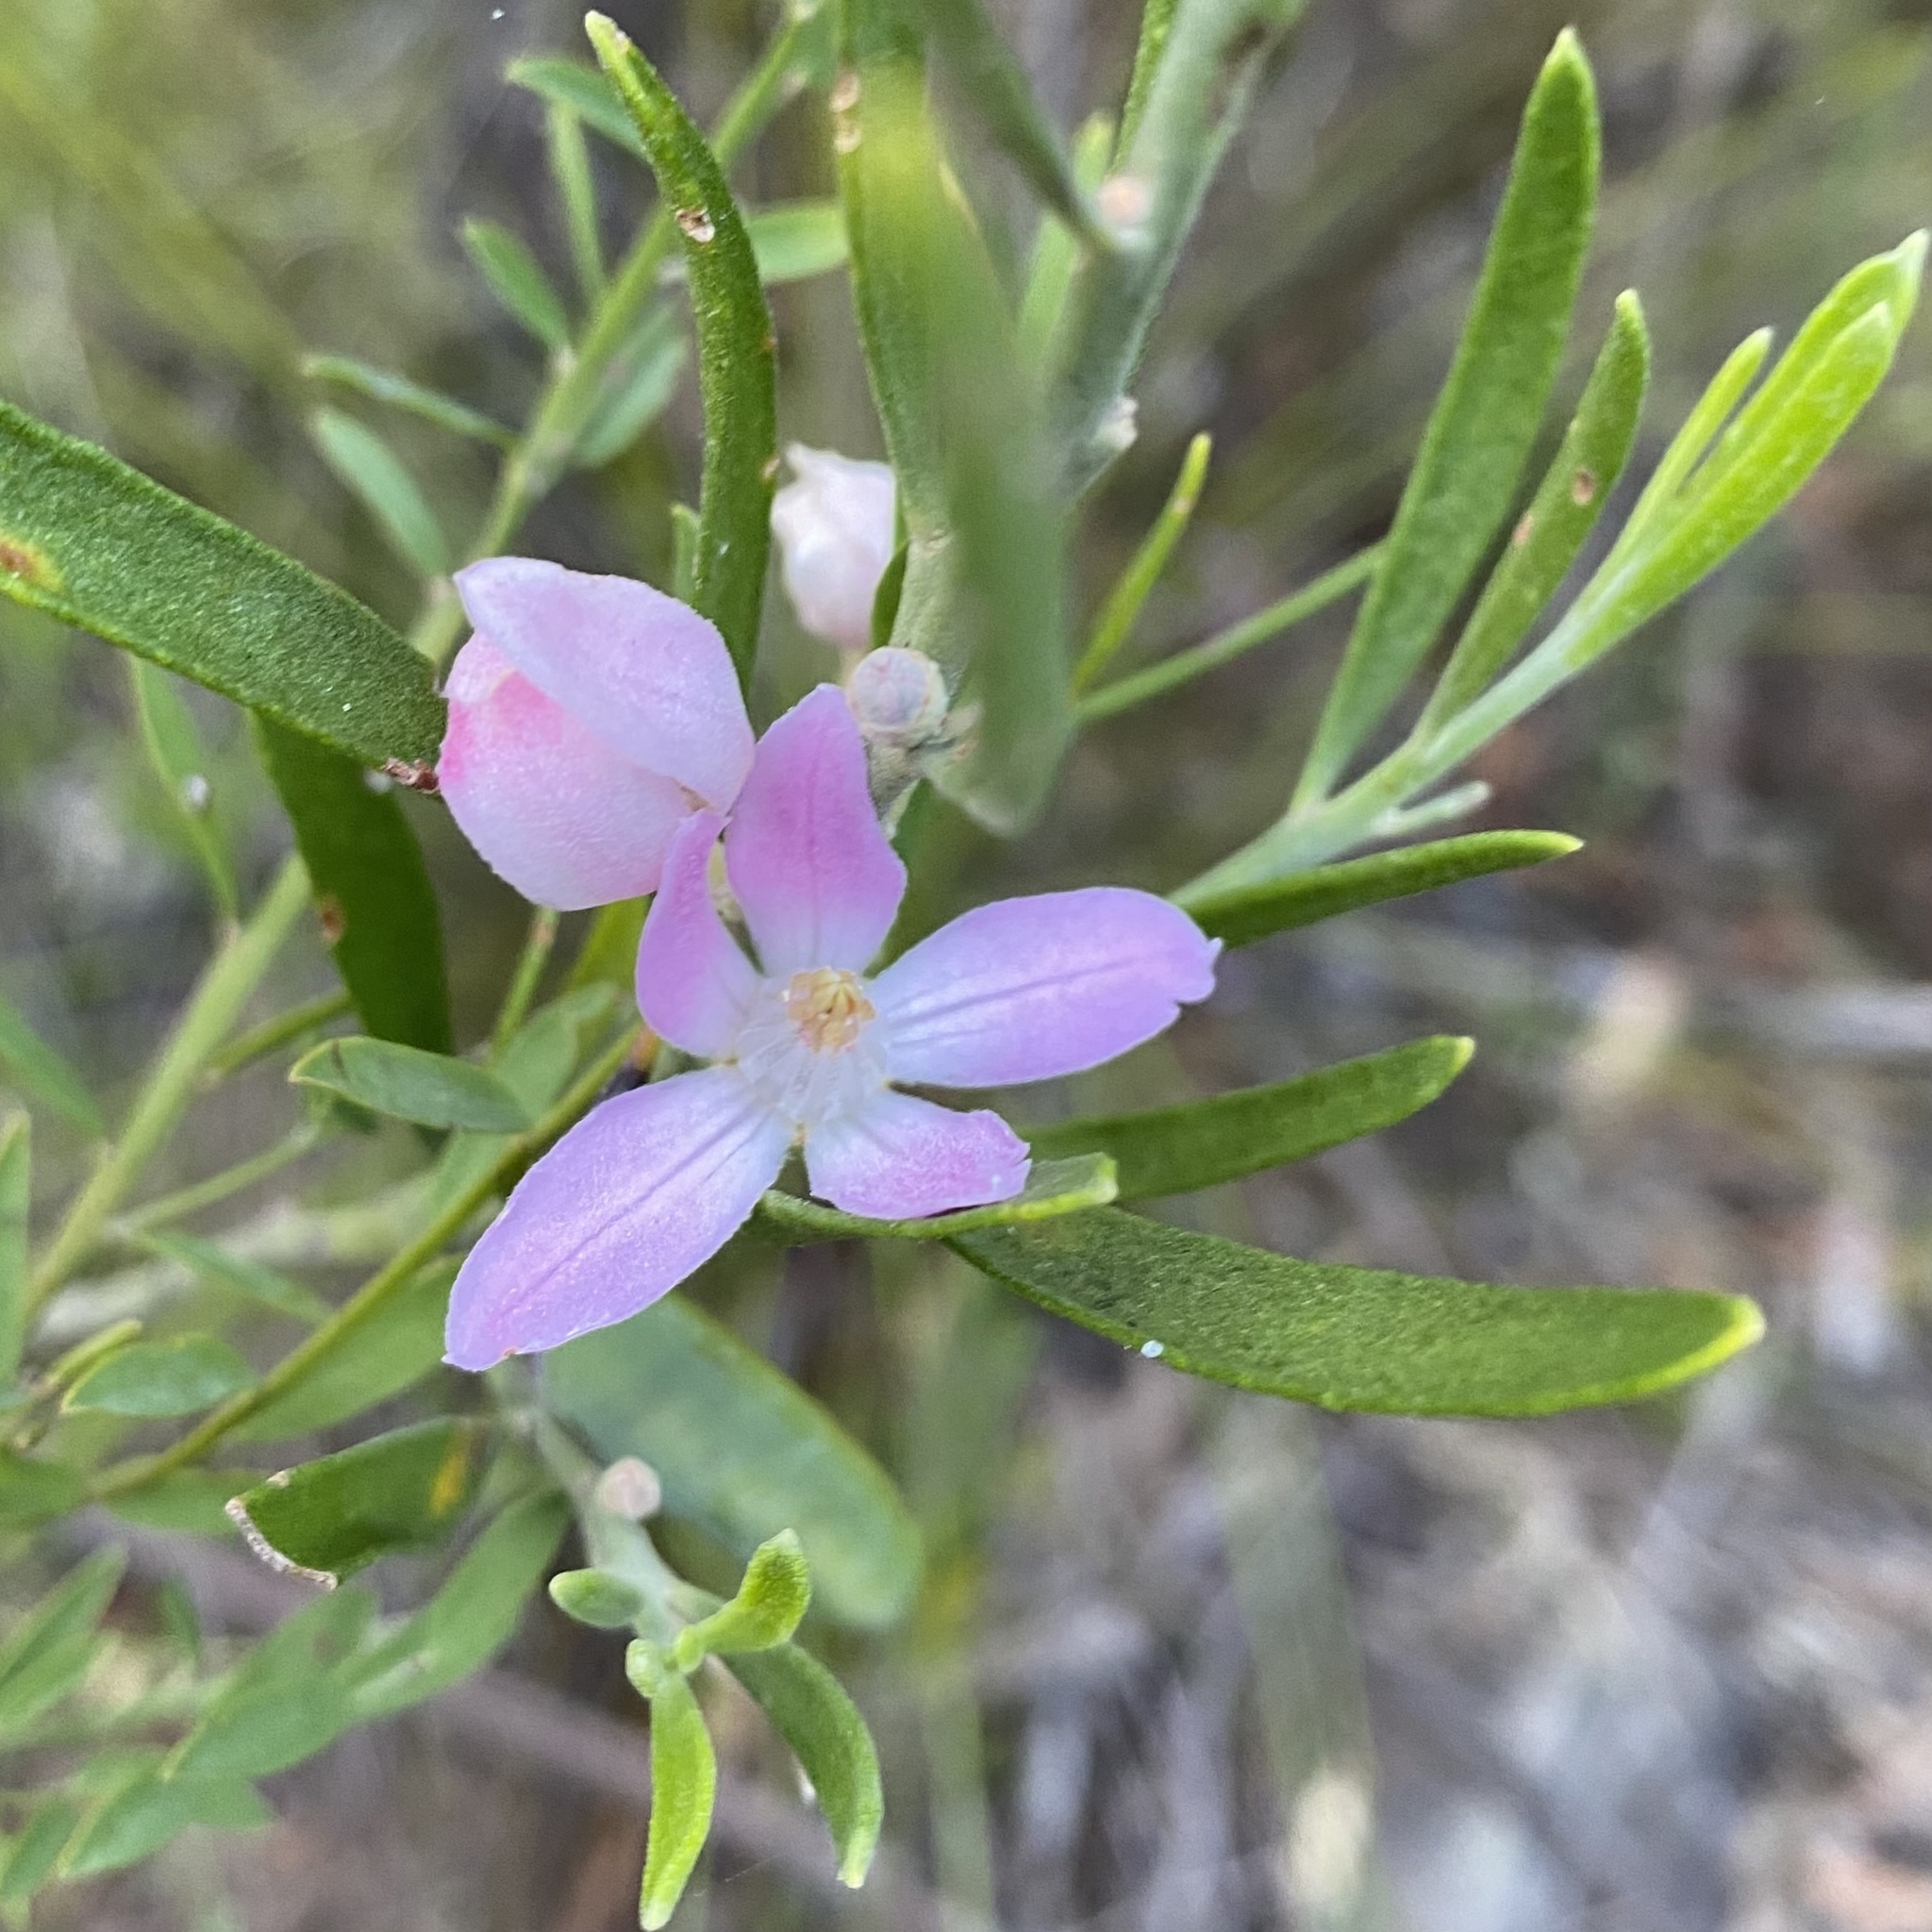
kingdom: Plantae
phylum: Tracheophyta
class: Magnoliopsida
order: Sapindales
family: Rutaceae
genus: Eriostemon
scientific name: Eriostemon australasius
